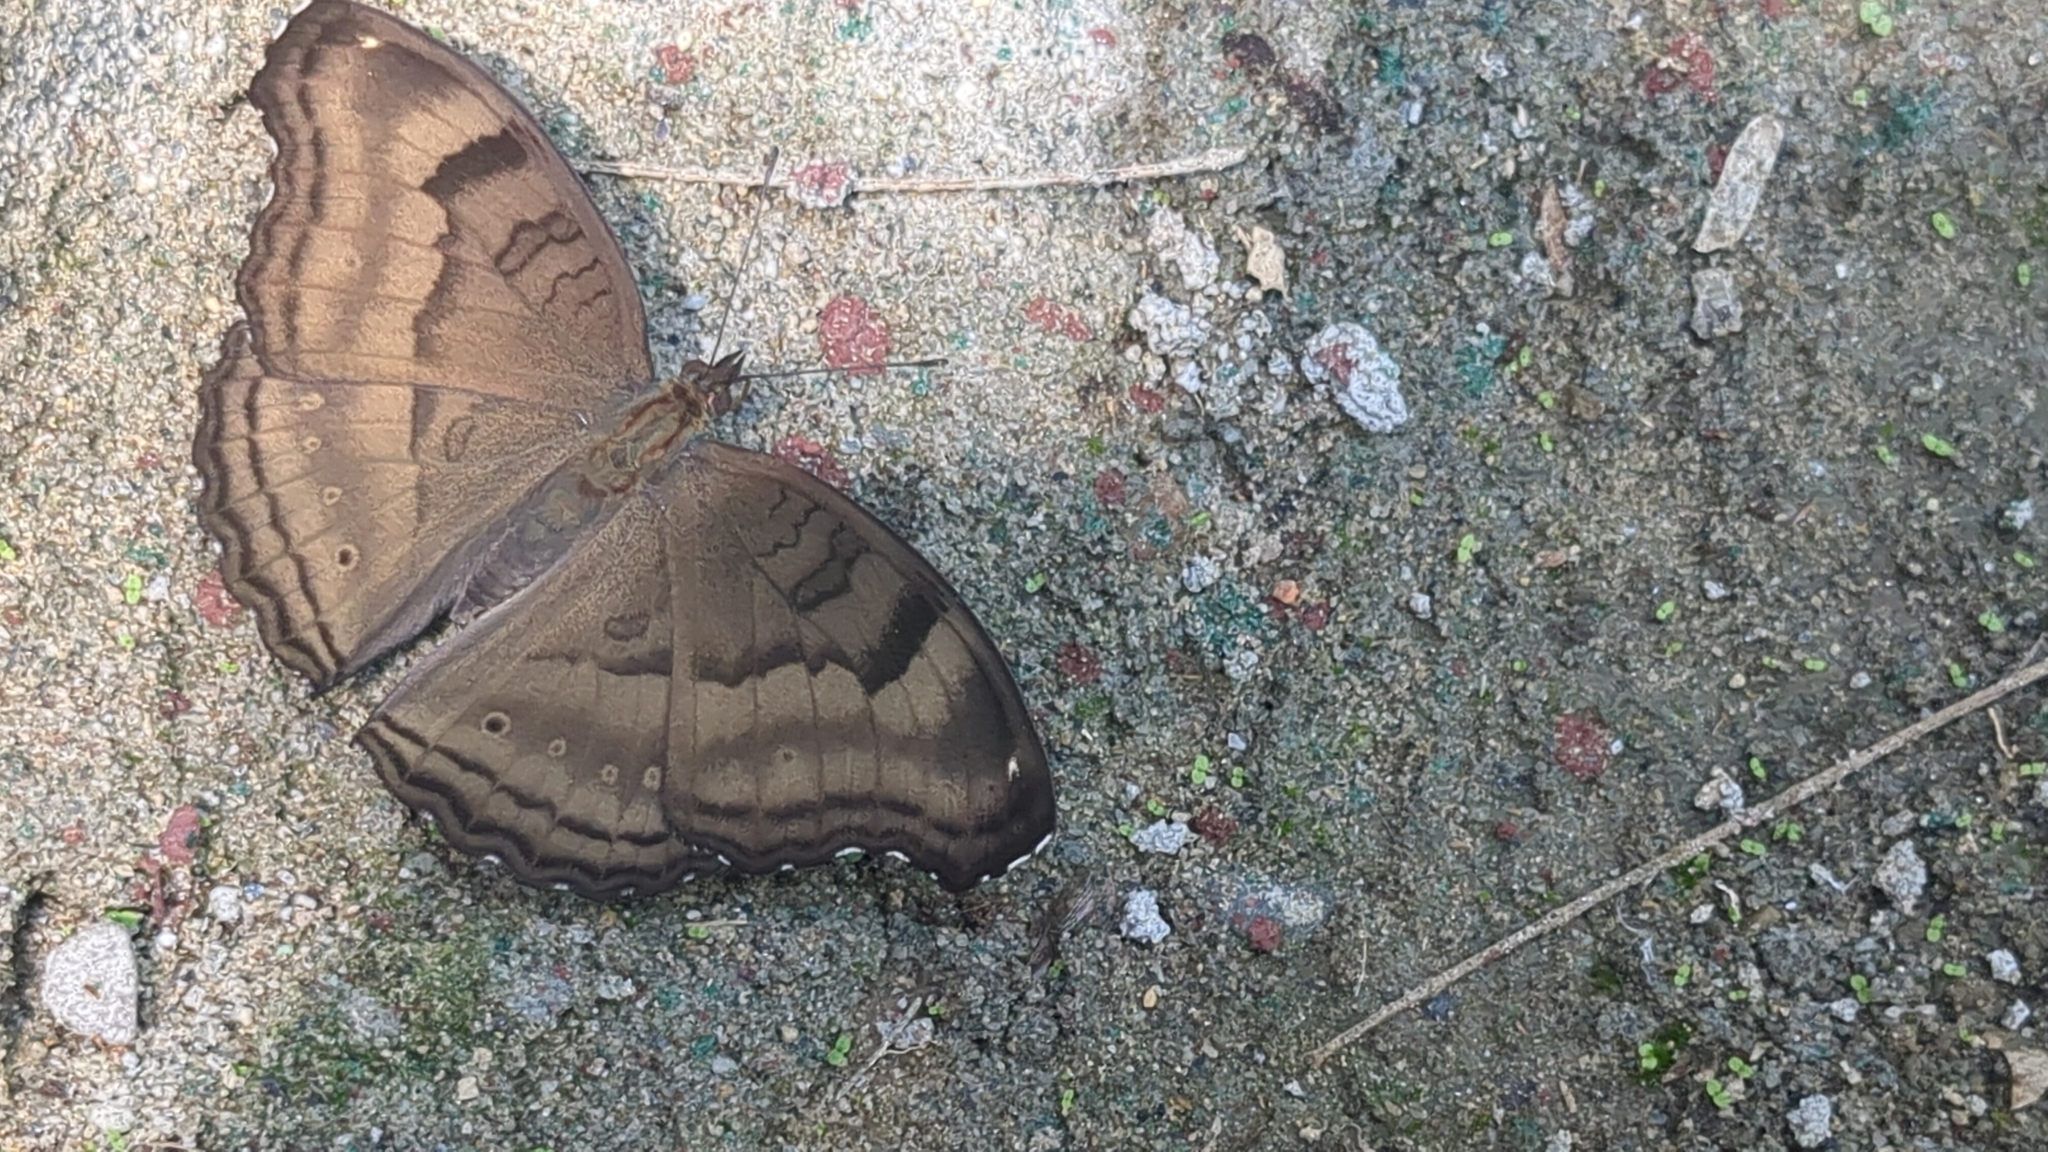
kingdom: Animalia
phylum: Arthropoda
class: Insecta
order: Lepidoptera
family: Nymphalidae
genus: Junonia
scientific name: Junonia iphita
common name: Chocolate pansy
